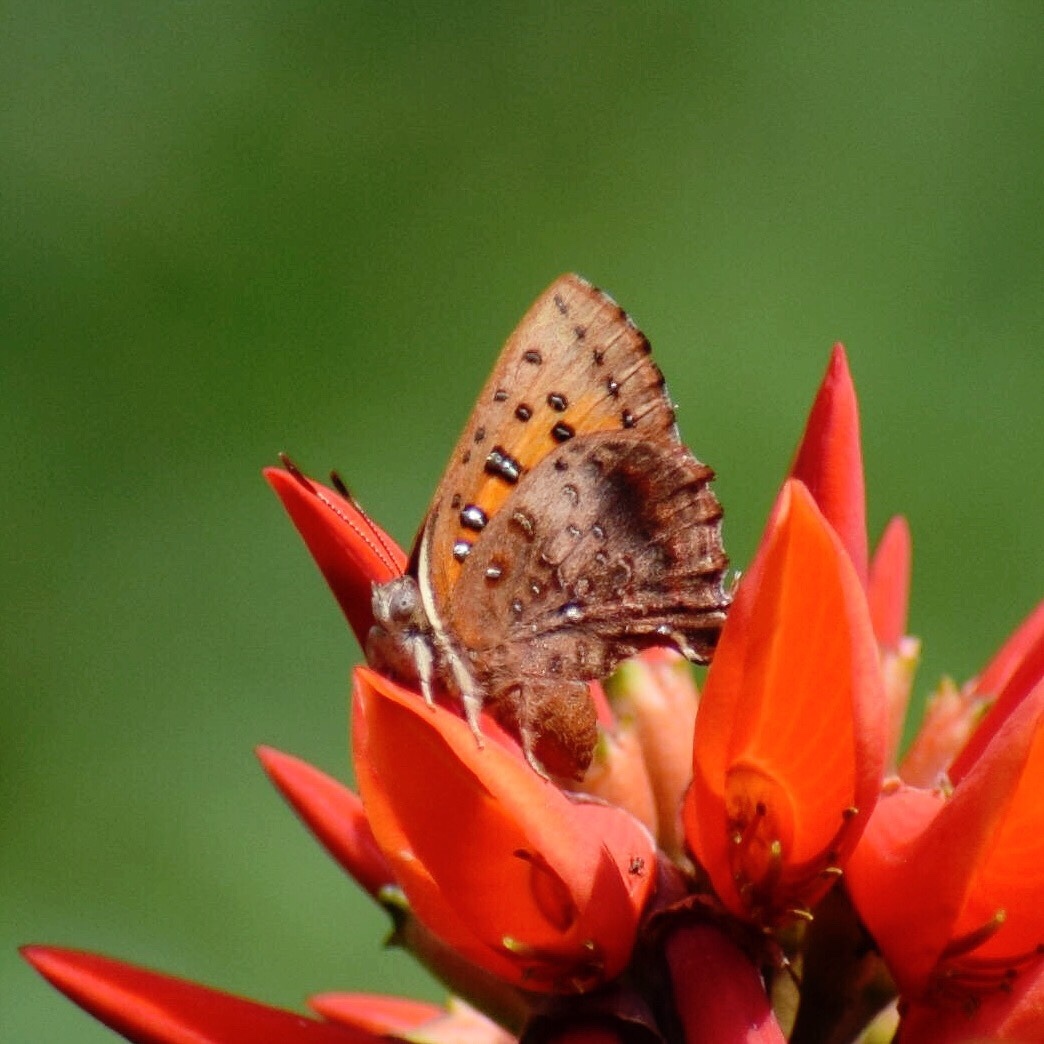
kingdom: Animalia
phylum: Arthropoda
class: Insecta
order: Lepidoptera
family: Lycaenidae
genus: Axiocerses
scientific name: Axiocerses perion
